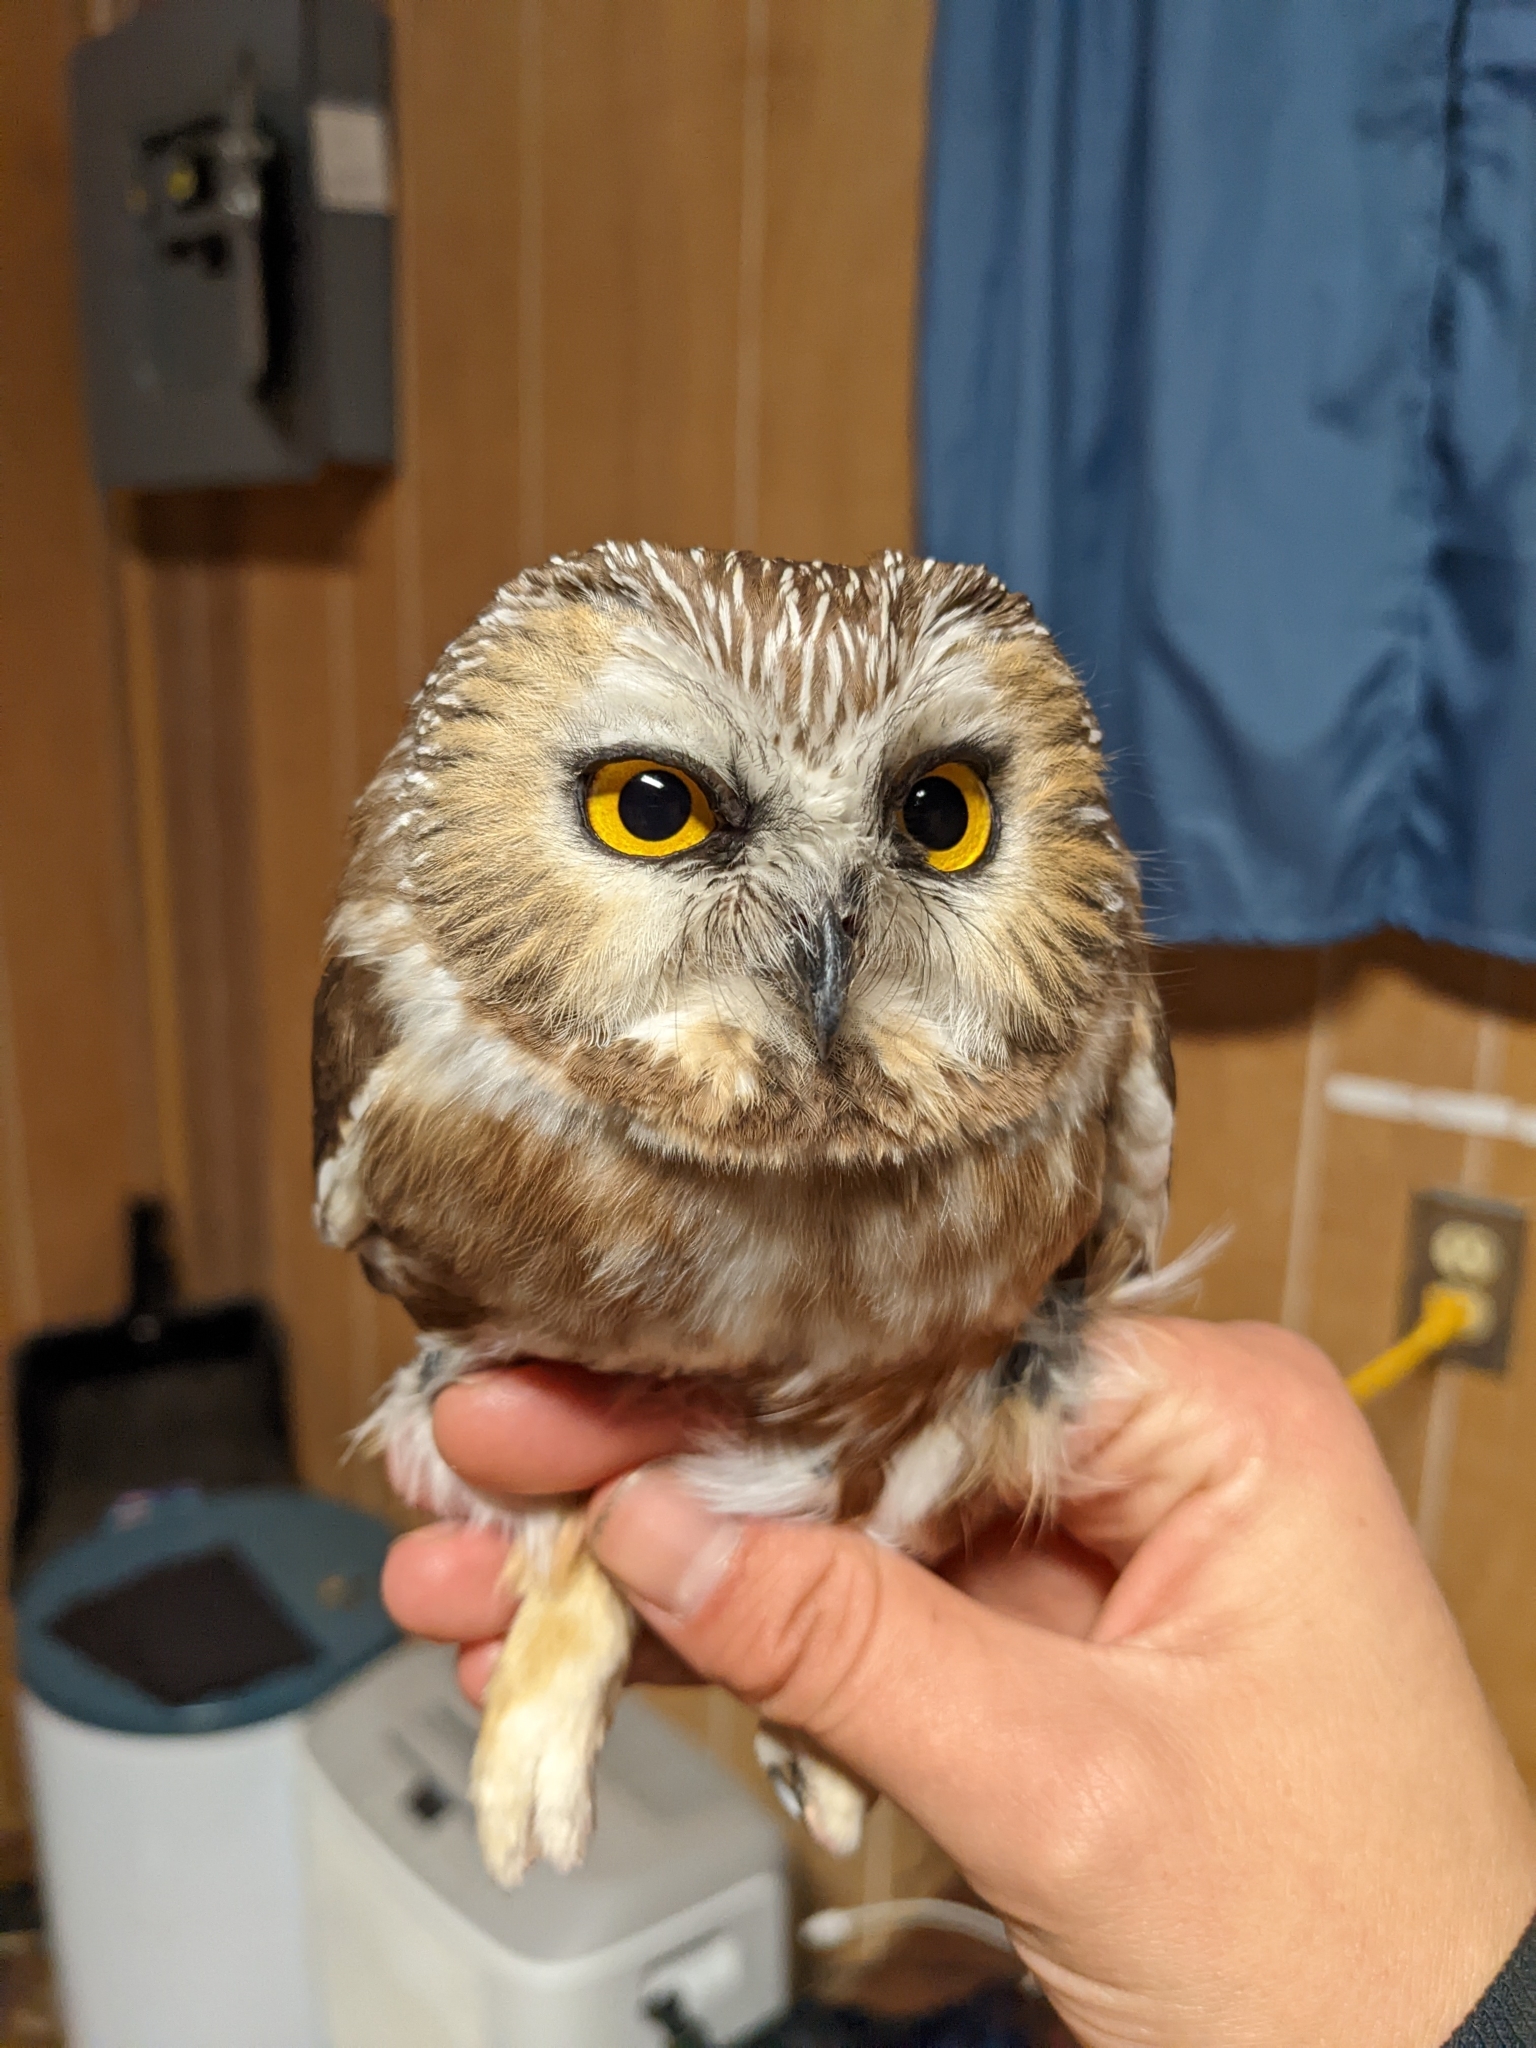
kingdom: Animalia
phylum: Chordata
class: Aves
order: Strigiformes
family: Strigidae
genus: Aegolius
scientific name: Aegolius acadicus
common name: Northern saw-whet owl
